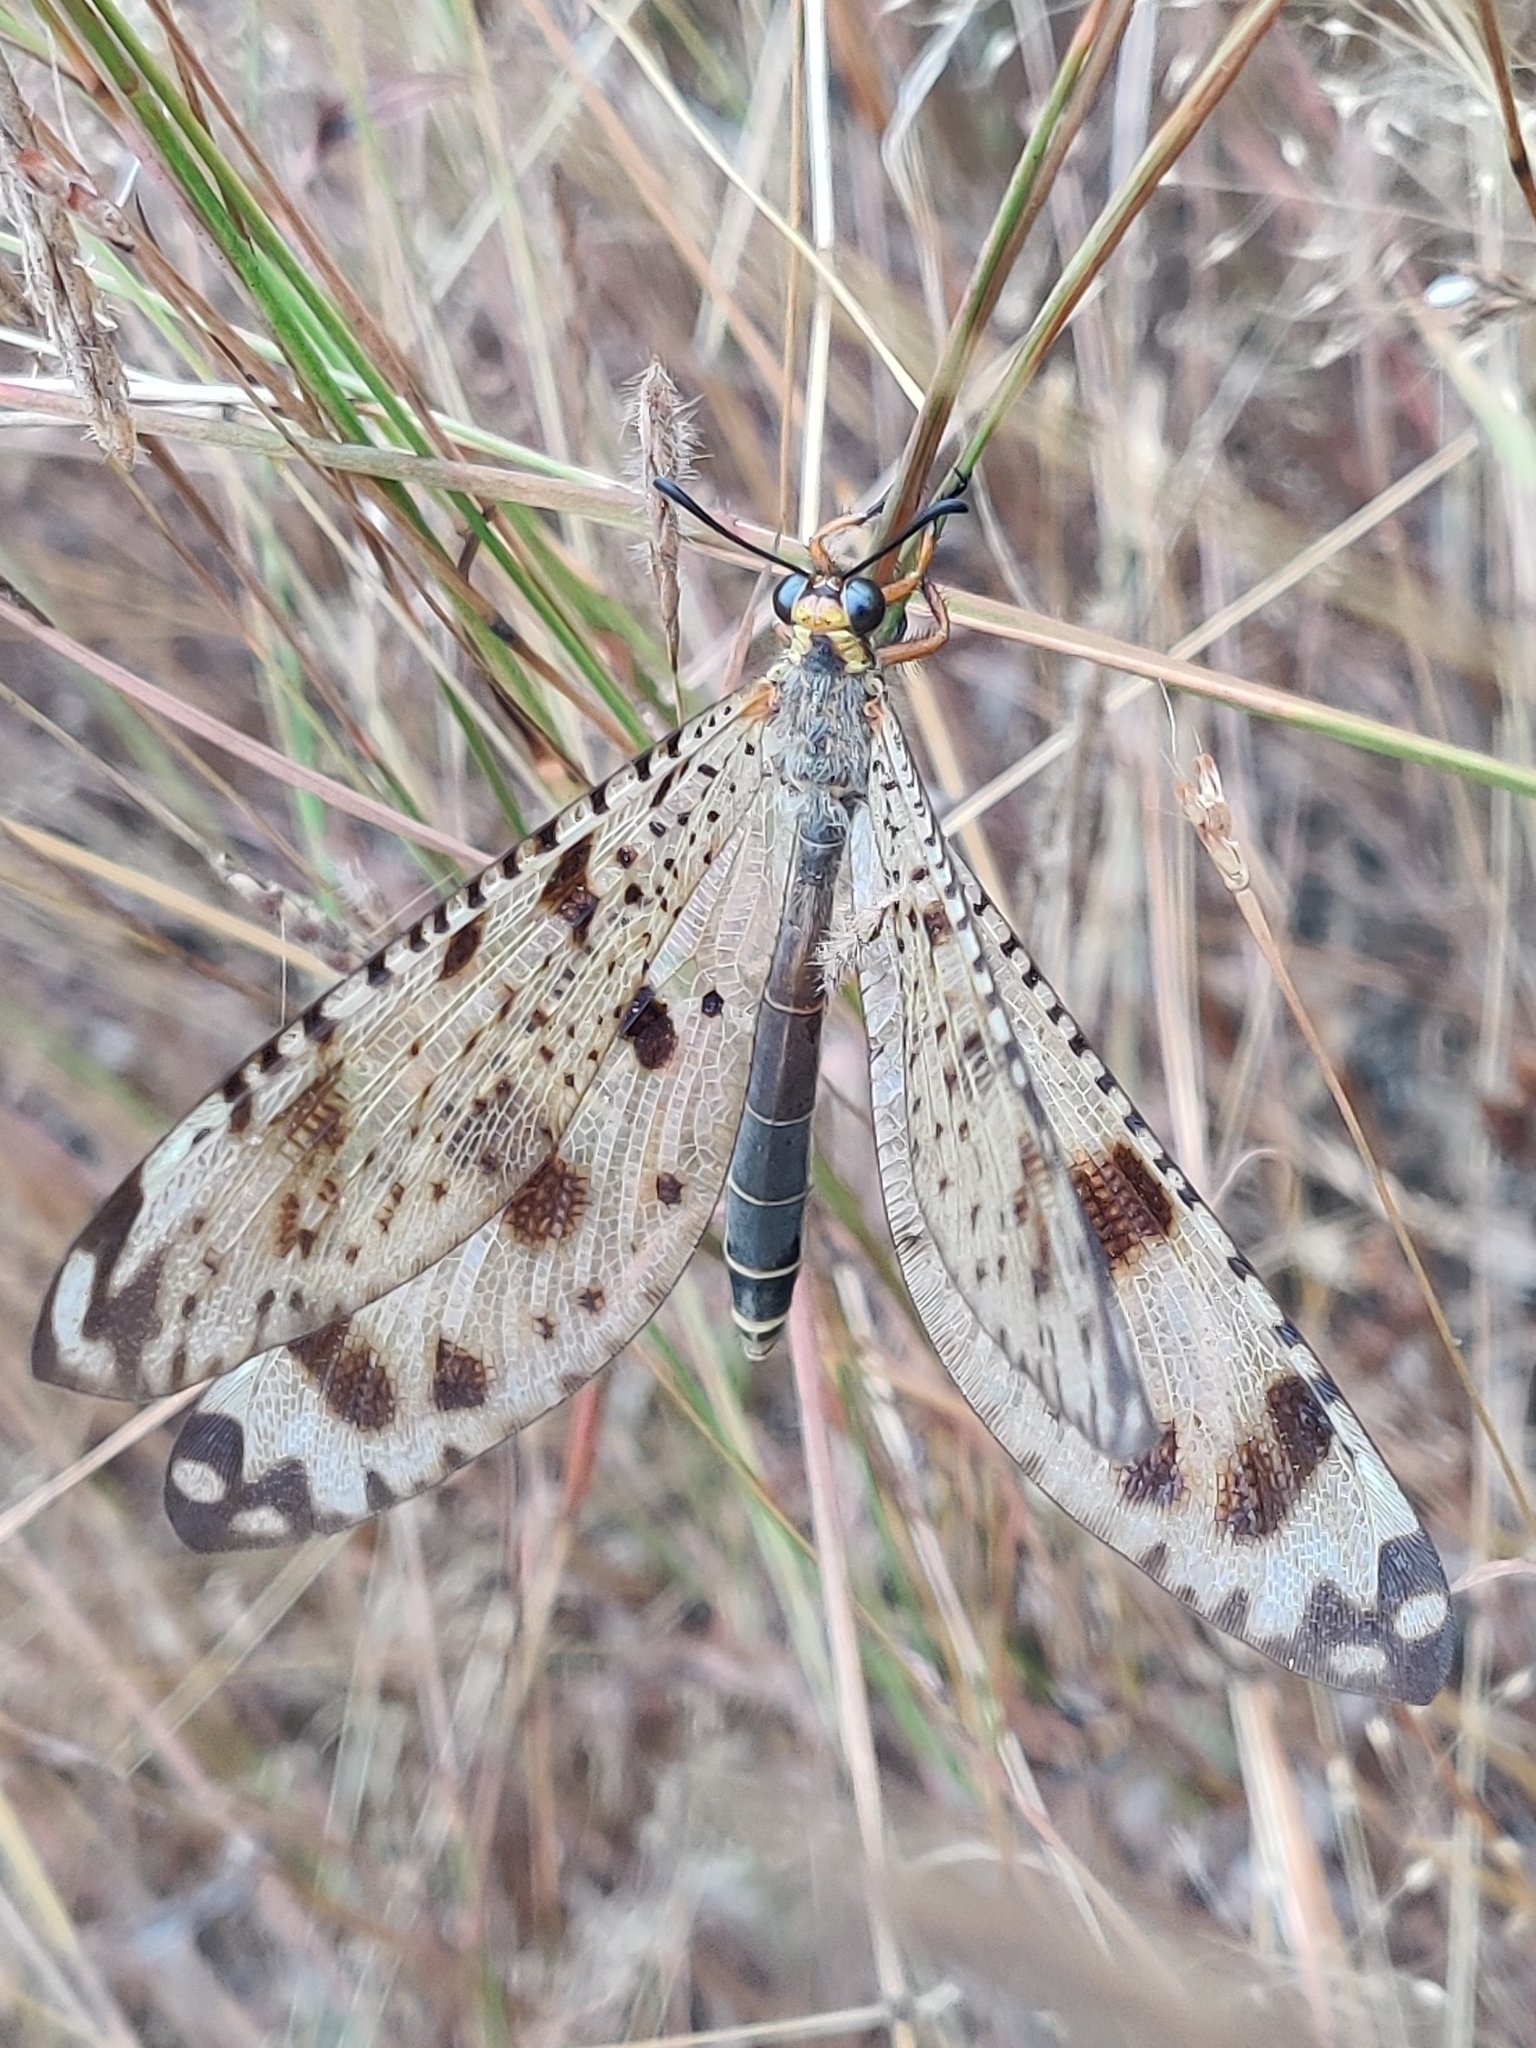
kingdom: Animalia
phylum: Arthropoda
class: Insecta
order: Neuroptera
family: Myrmeleontidae
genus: Indopalpares
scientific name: Indopalpares pardus
